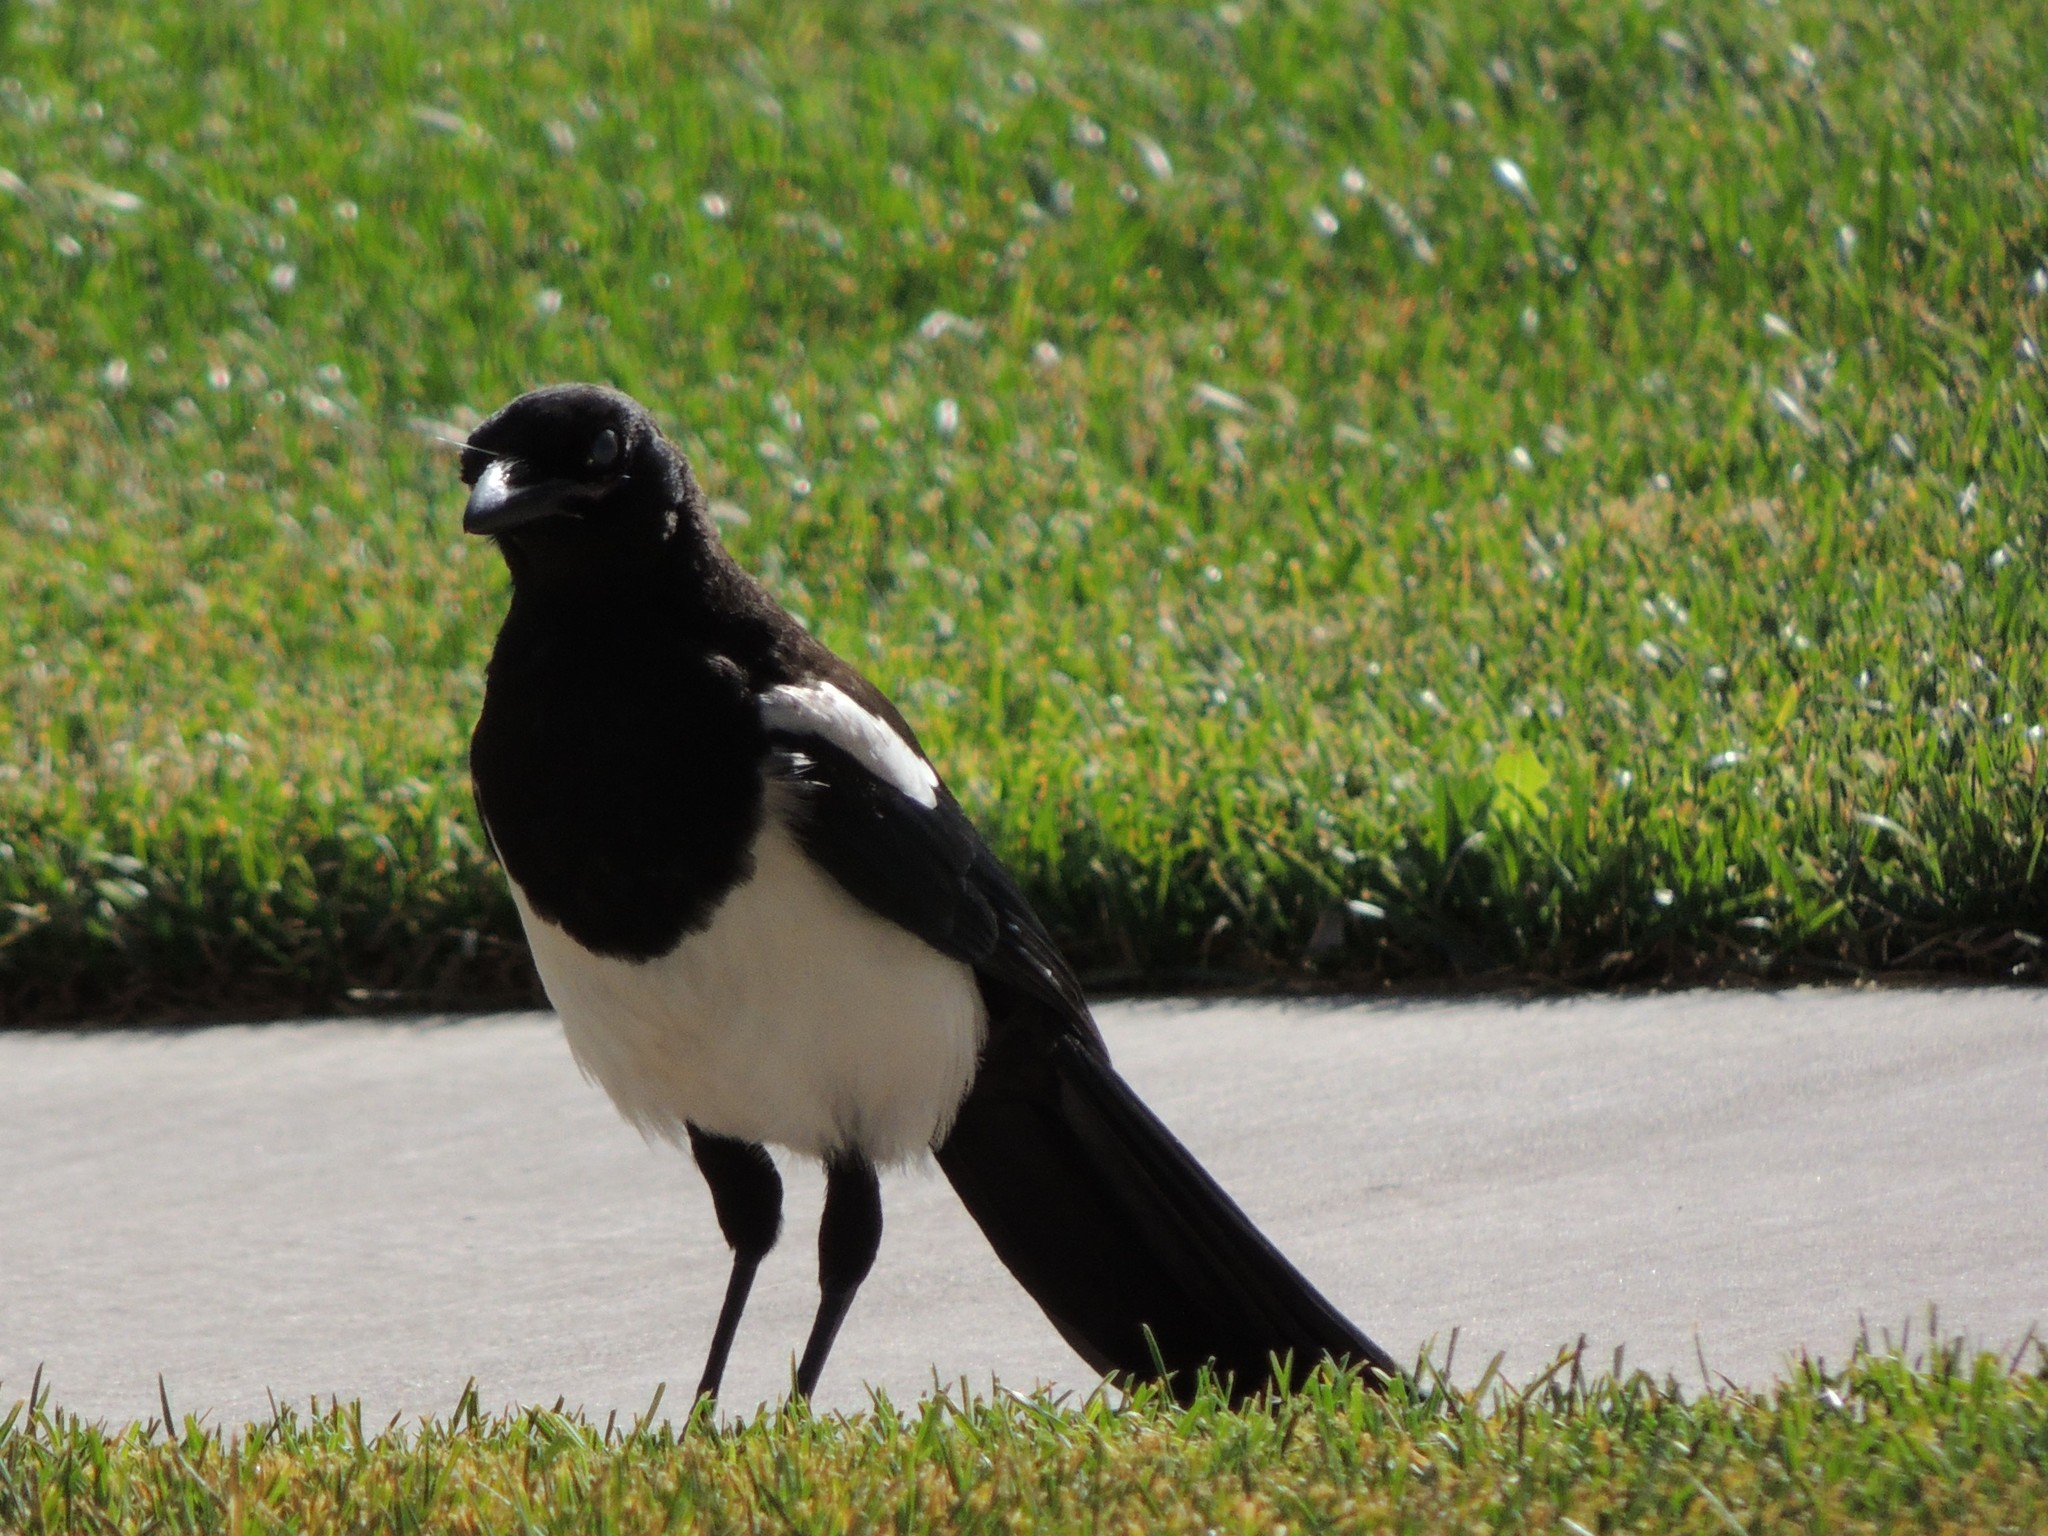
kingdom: Animalia
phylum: Chordata
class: Aves
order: Passeriformes
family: Corvidae
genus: Pica
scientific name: Pica hudsonia
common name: Black-billed magpie
